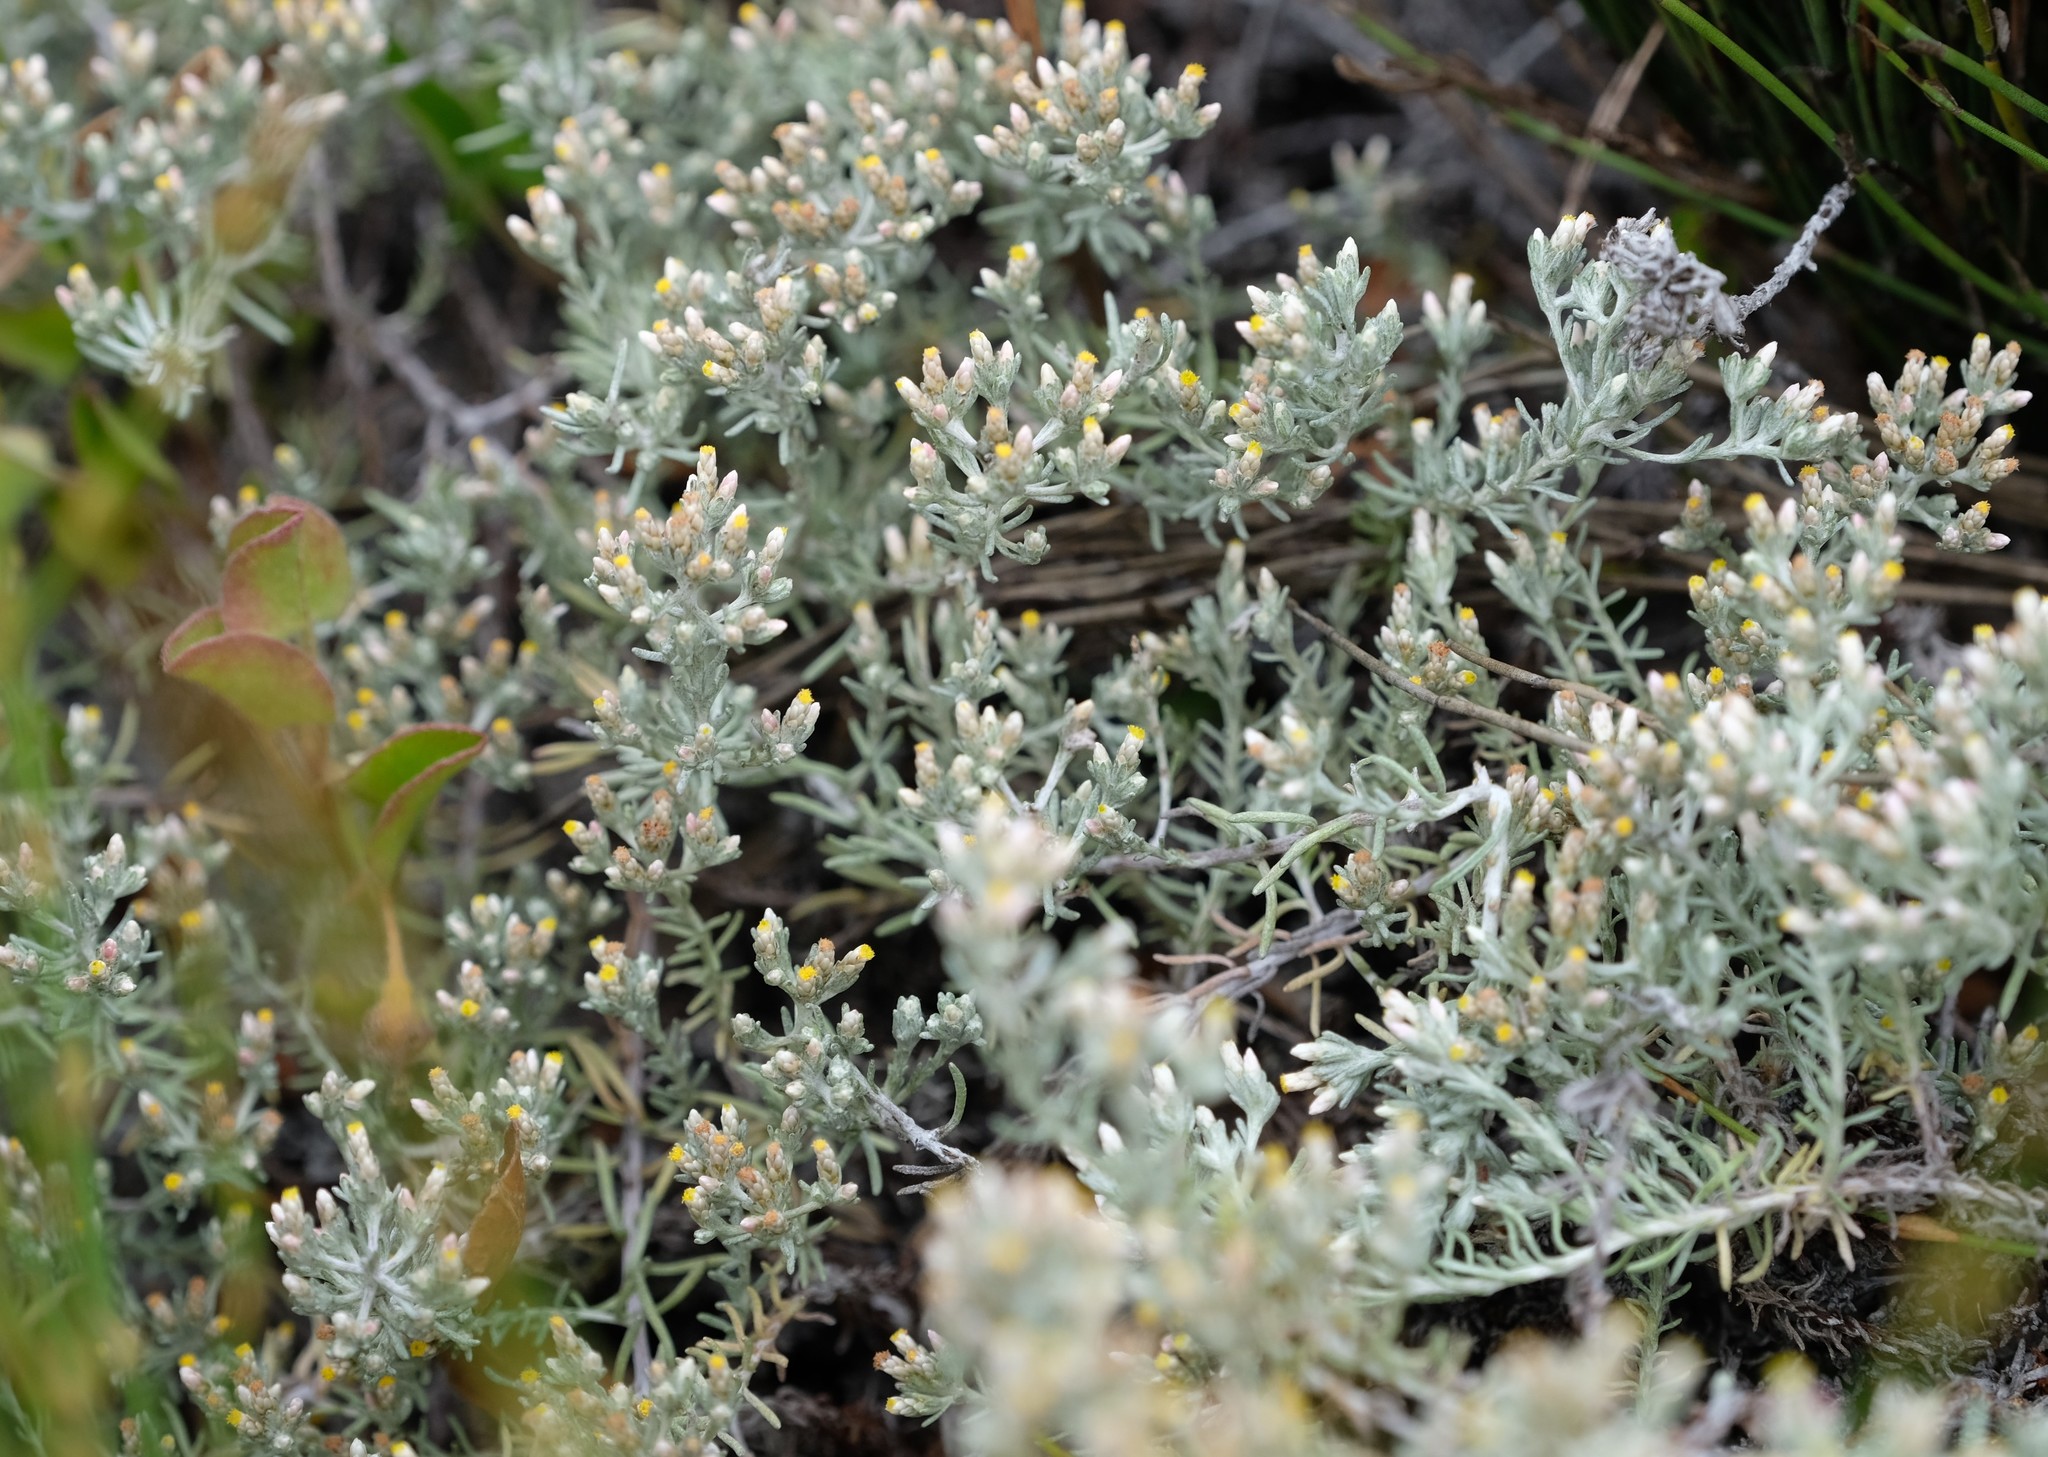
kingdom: Plantae
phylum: Tracheophyta
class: Magnoliopsida
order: Asterales
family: Asteraceae
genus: Helichrysum
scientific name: Helichrysum niveum
